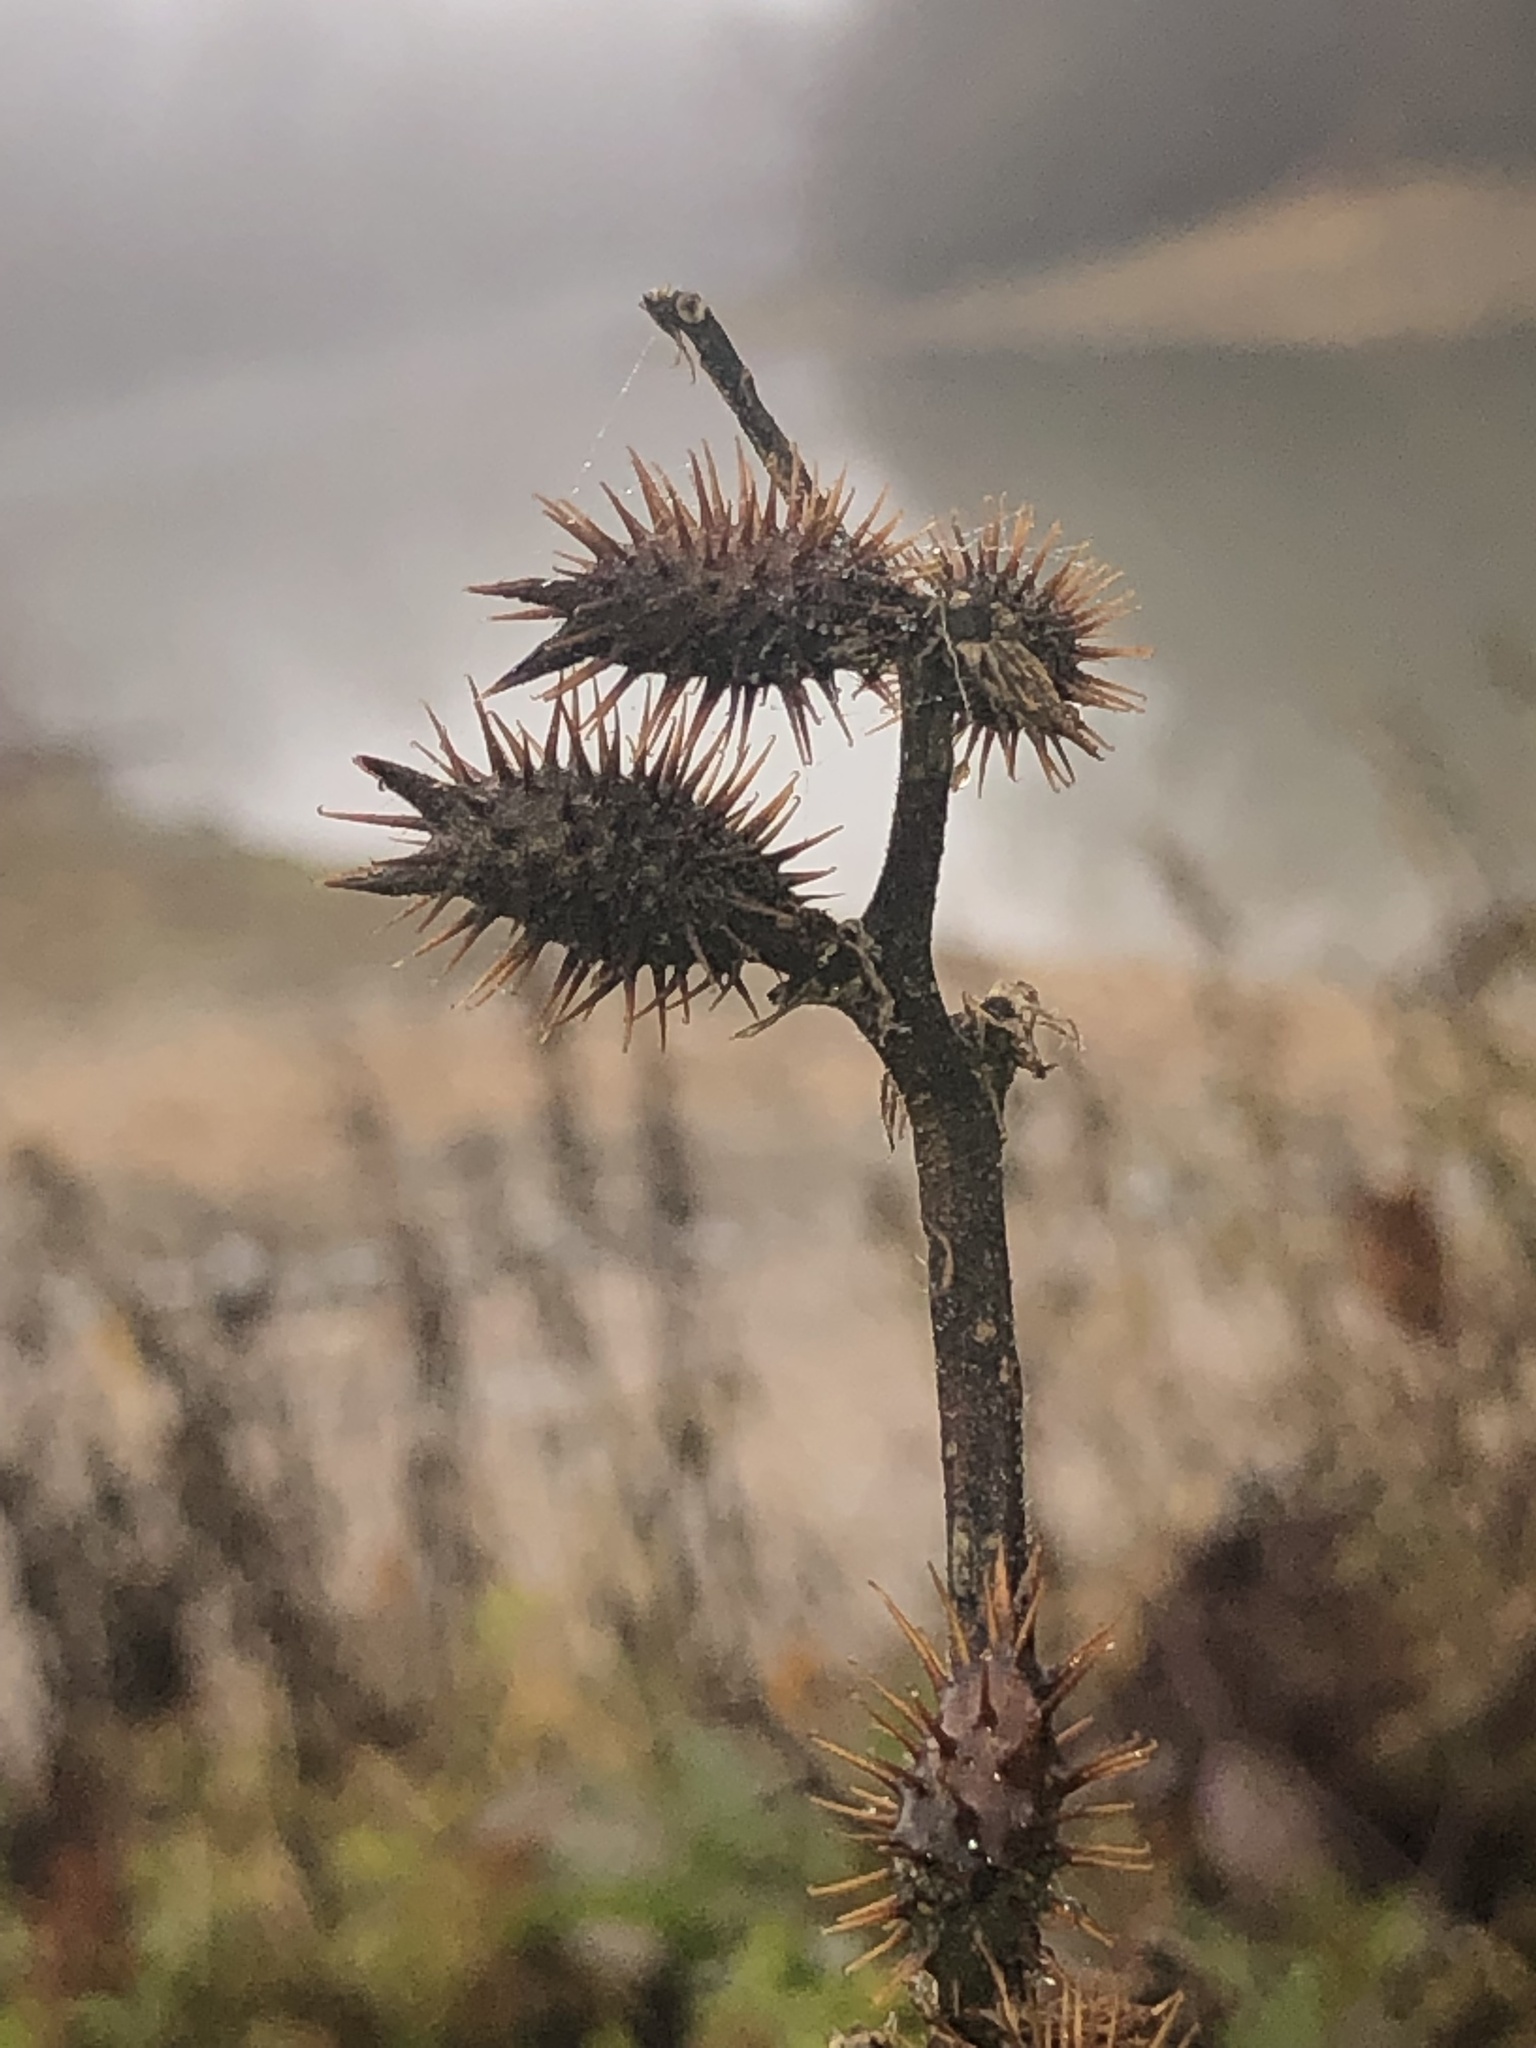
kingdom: Plantae
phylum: Tracheophyta
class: Magnoliopsida
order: Asterales
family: Asteraceae
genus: Xanthium
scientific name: Xanthium orientale
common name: Californian burr
